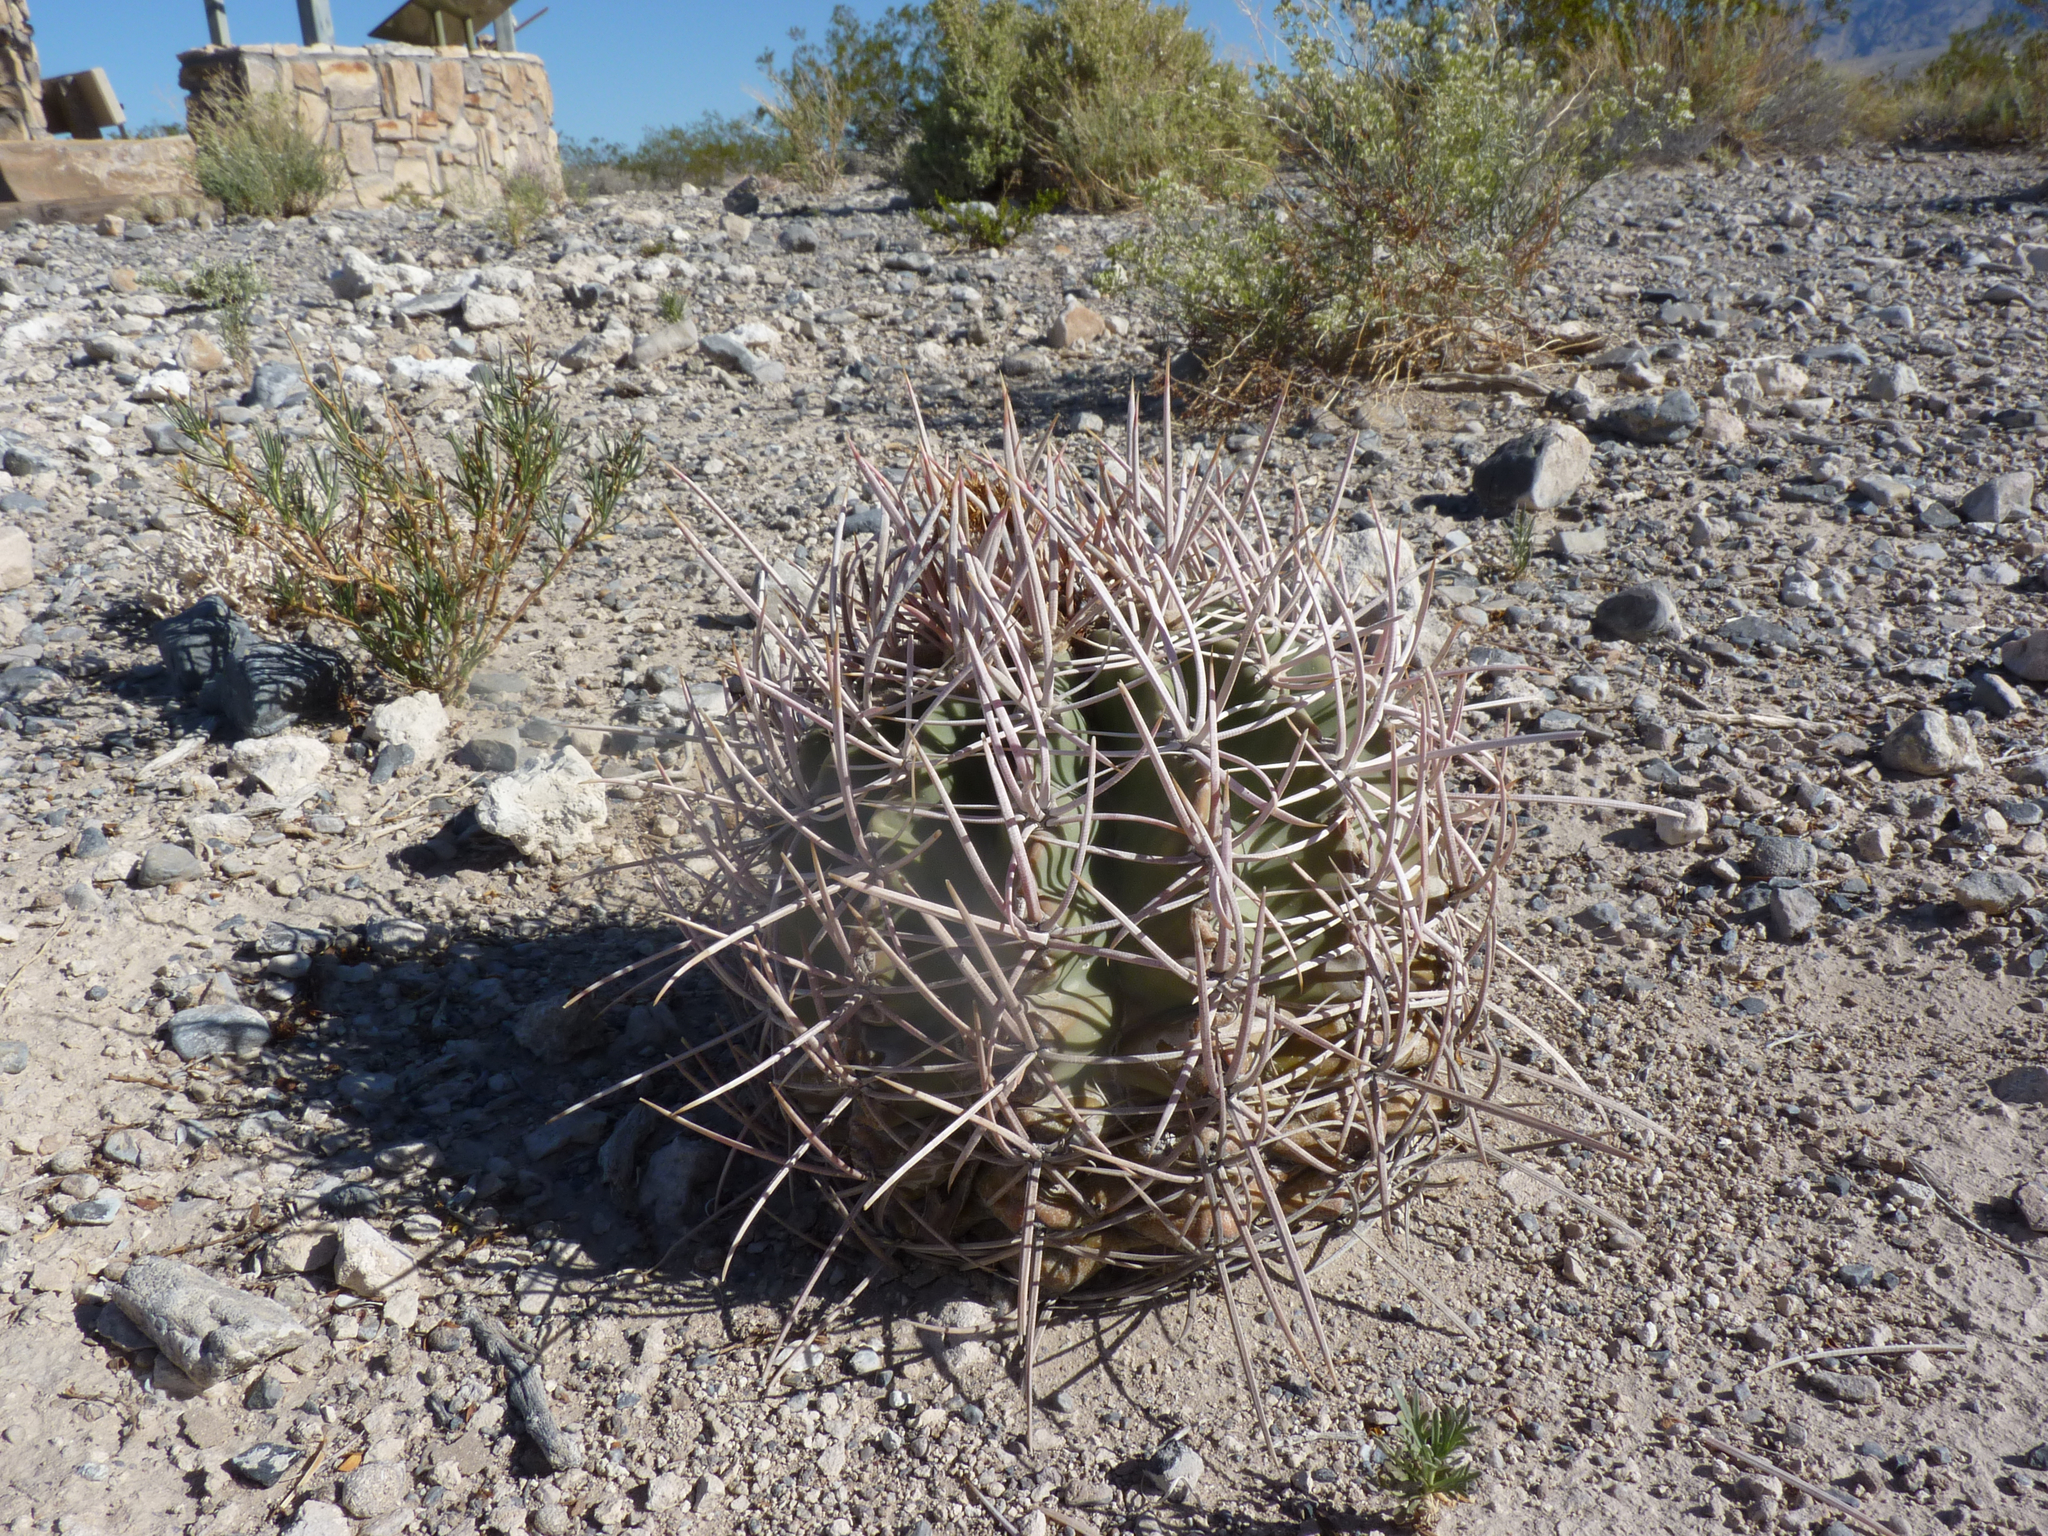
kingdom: Plantae
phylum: Tracheophyta
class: Magnoliopsida
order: Caryophyllales
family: Cactaceae
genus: Echinocactus
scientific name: Echinocactus polycephalus
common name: Cottontop cactus
